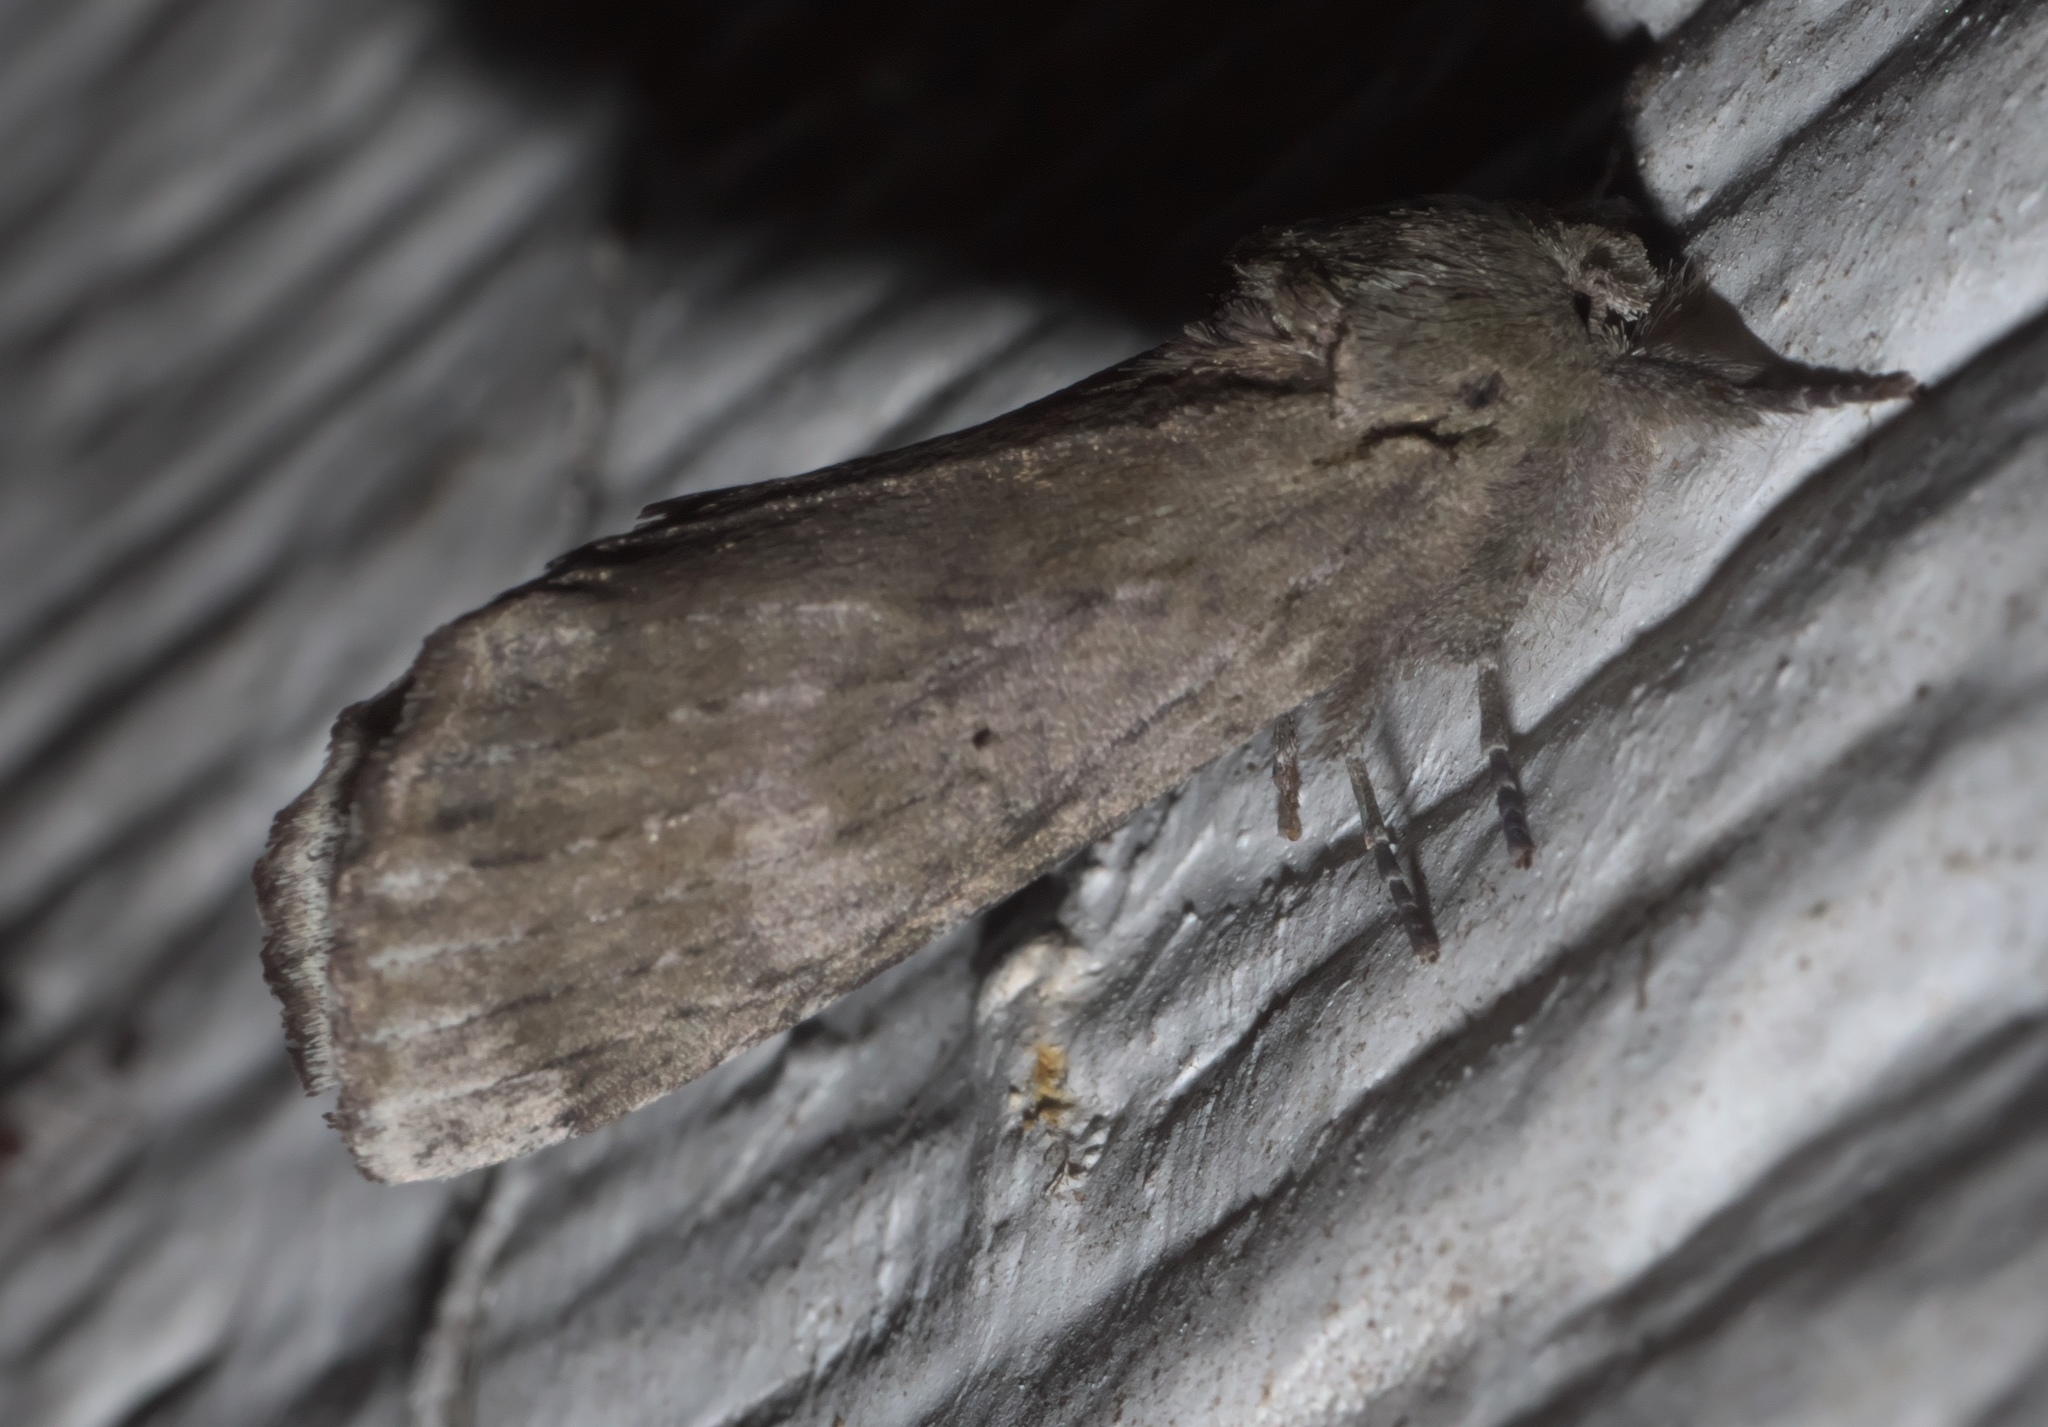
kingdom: Animalia
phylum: Arthropoda
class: Insecta
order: Lepidoptera
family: Notodontidae
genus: Schizura
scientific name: Schizura
